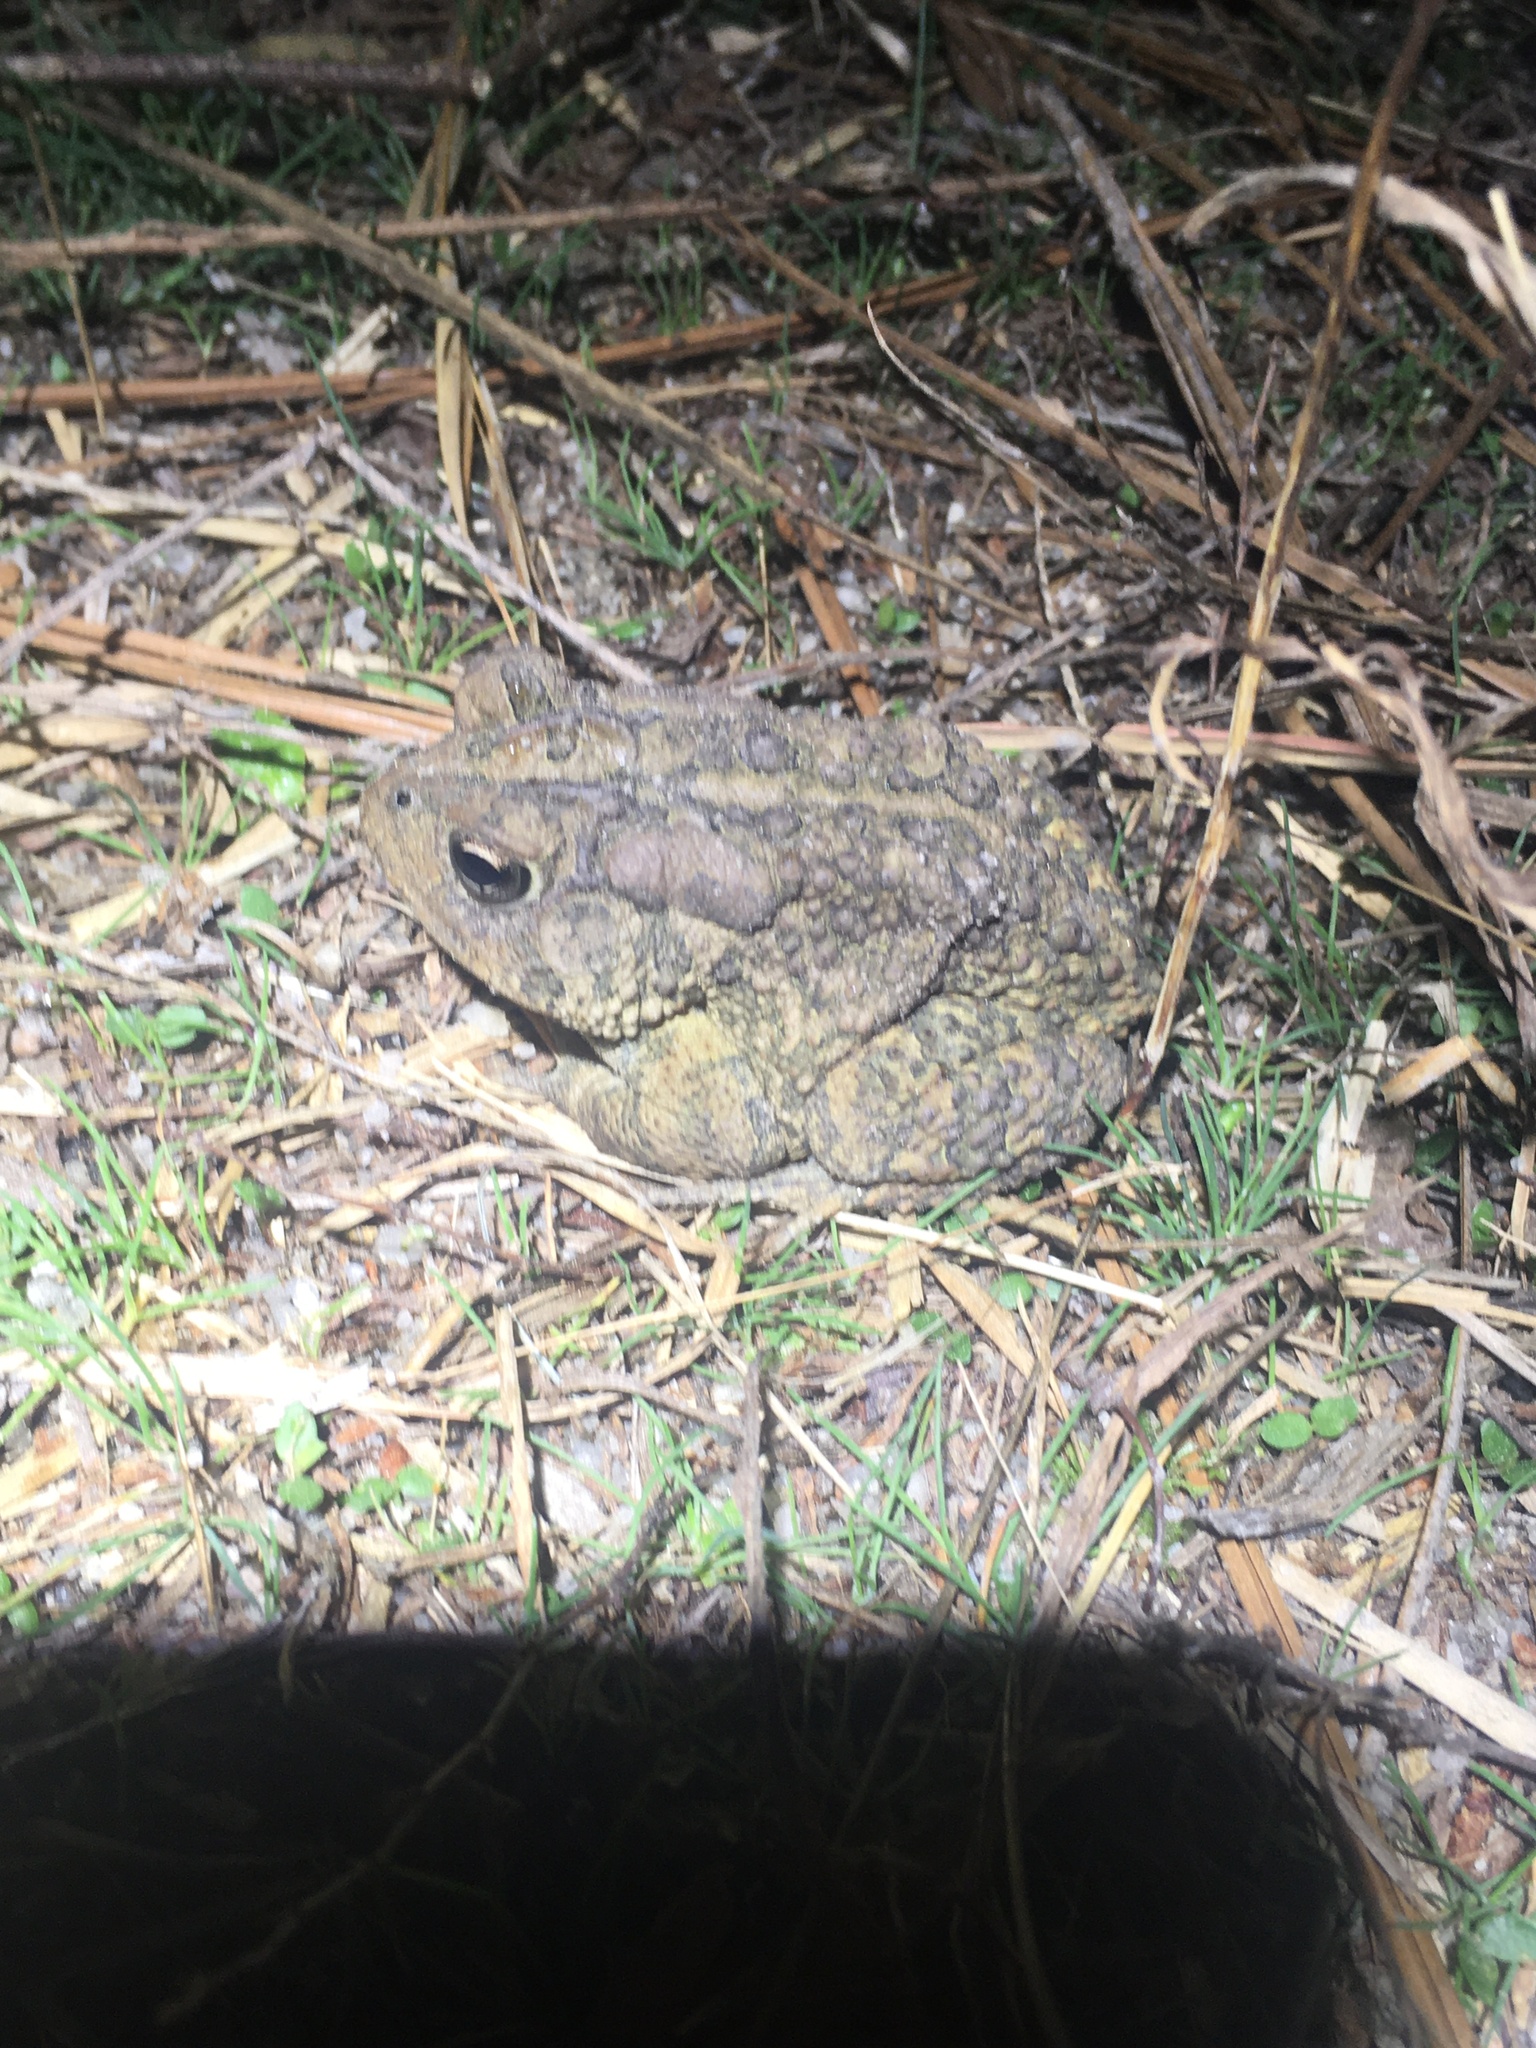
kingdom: Animalia
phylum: Chordata
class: Amphibia
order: Anura
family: Bufonidae
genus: Anaxyrus
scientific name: Anaxyrus terrestris
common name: Southern toad
